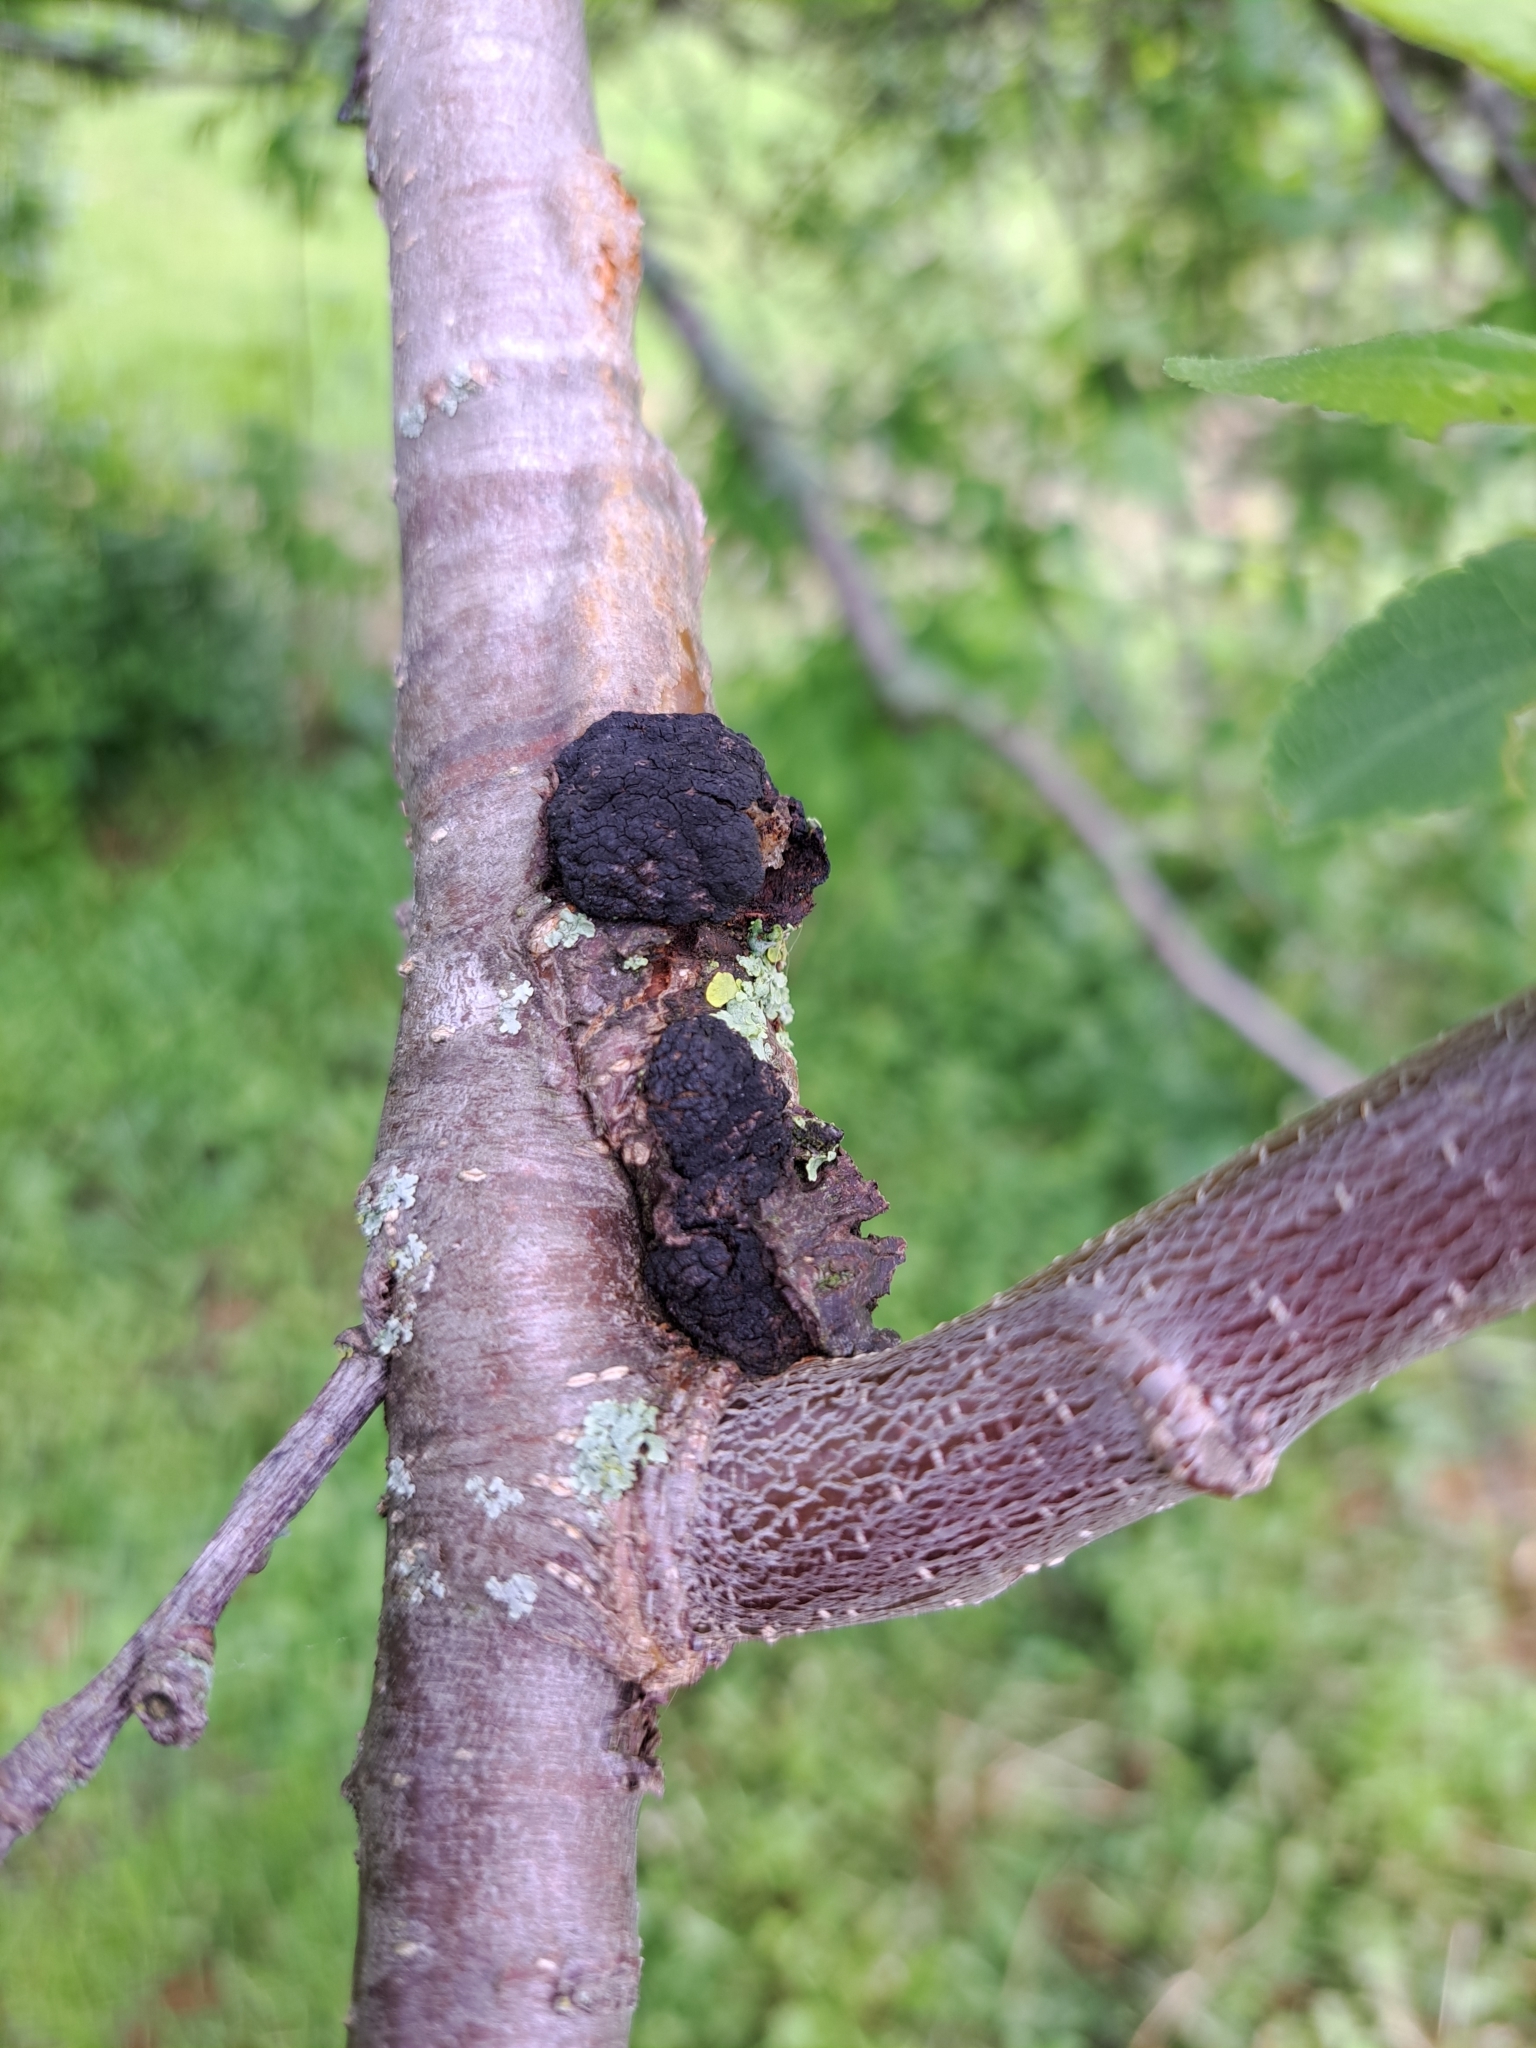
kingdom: Fungi
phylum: Ascomycota
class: Dothideomycetes
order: Venturiales
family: Venturiaceae
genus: Apiosporina
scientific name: Apiosporina morbosa
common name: Black knot
